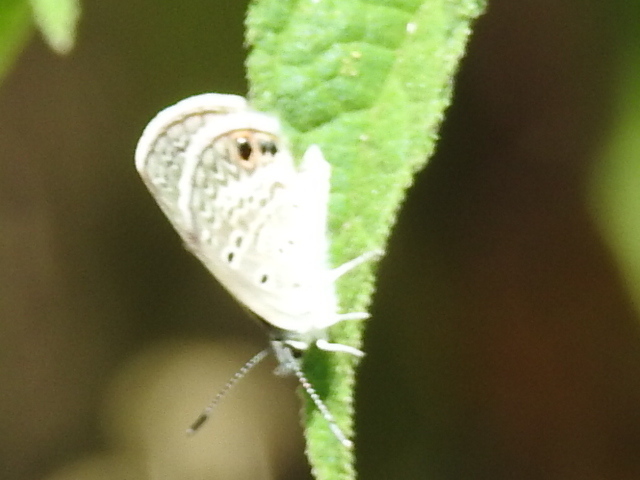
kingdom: Animalia
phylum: Arthropoda
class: Insecta
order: Lepidoptera
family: Lycaenidae
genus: Hemiargus
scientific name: Hemiargus ceraunus
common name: Ceraunus blue
